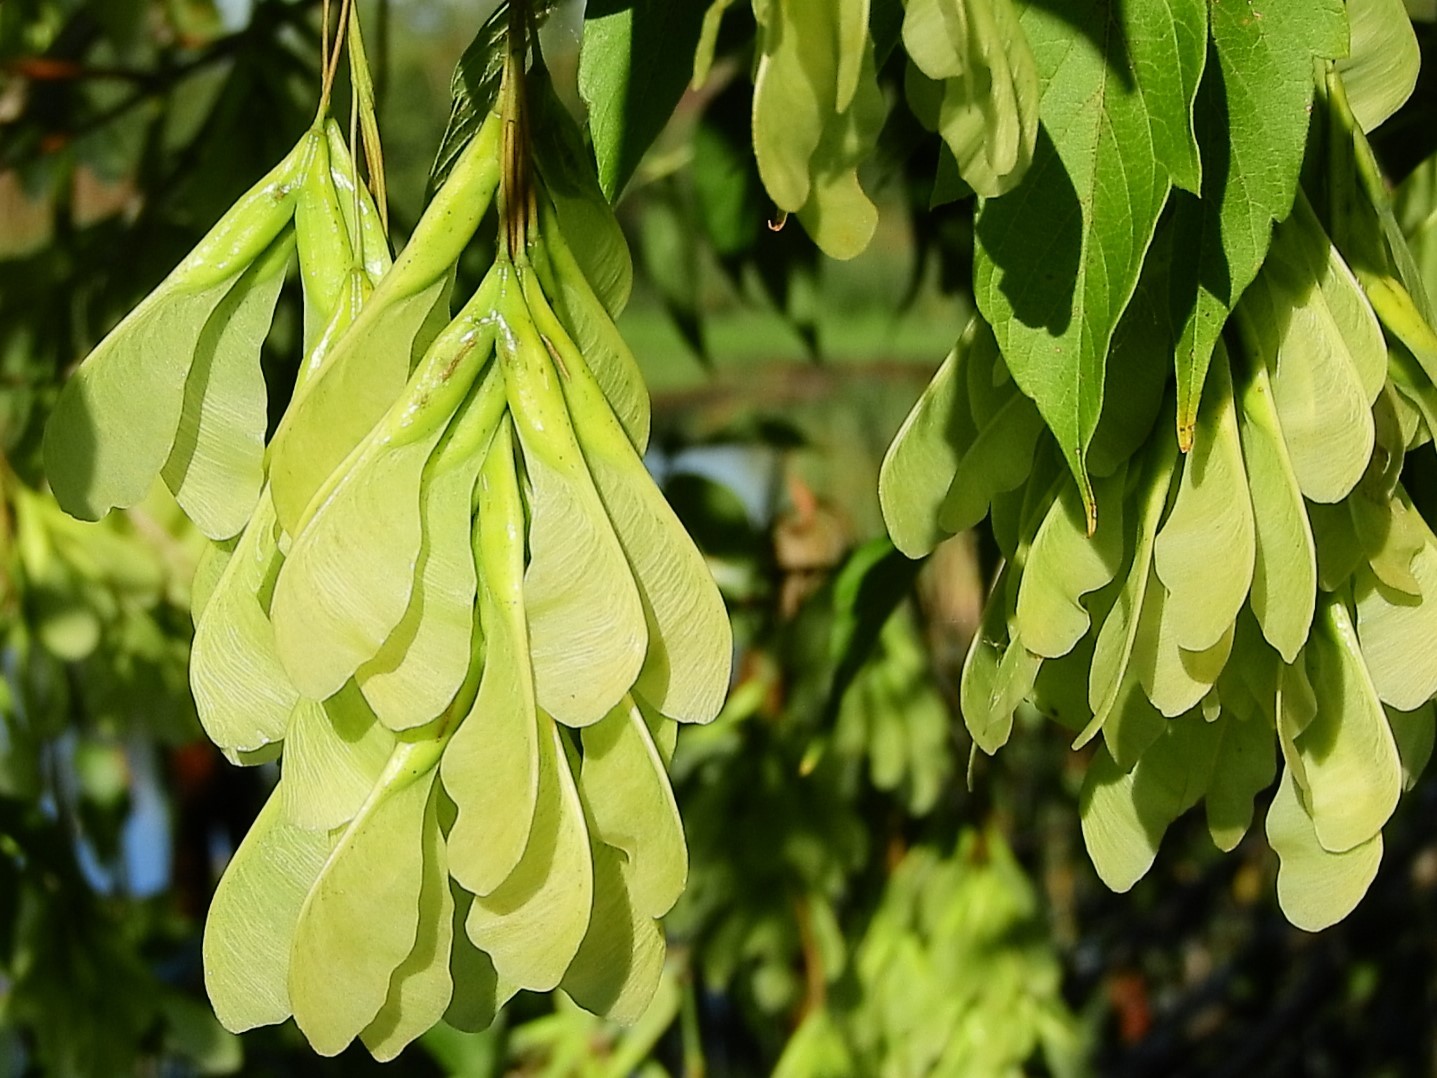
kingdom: Plantae
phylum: Tracheophyta
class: Magnoliopsida
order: Sapindales
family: Sapindaceae
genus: Acer
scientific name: Acer negundo
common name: Ashleaf maple
